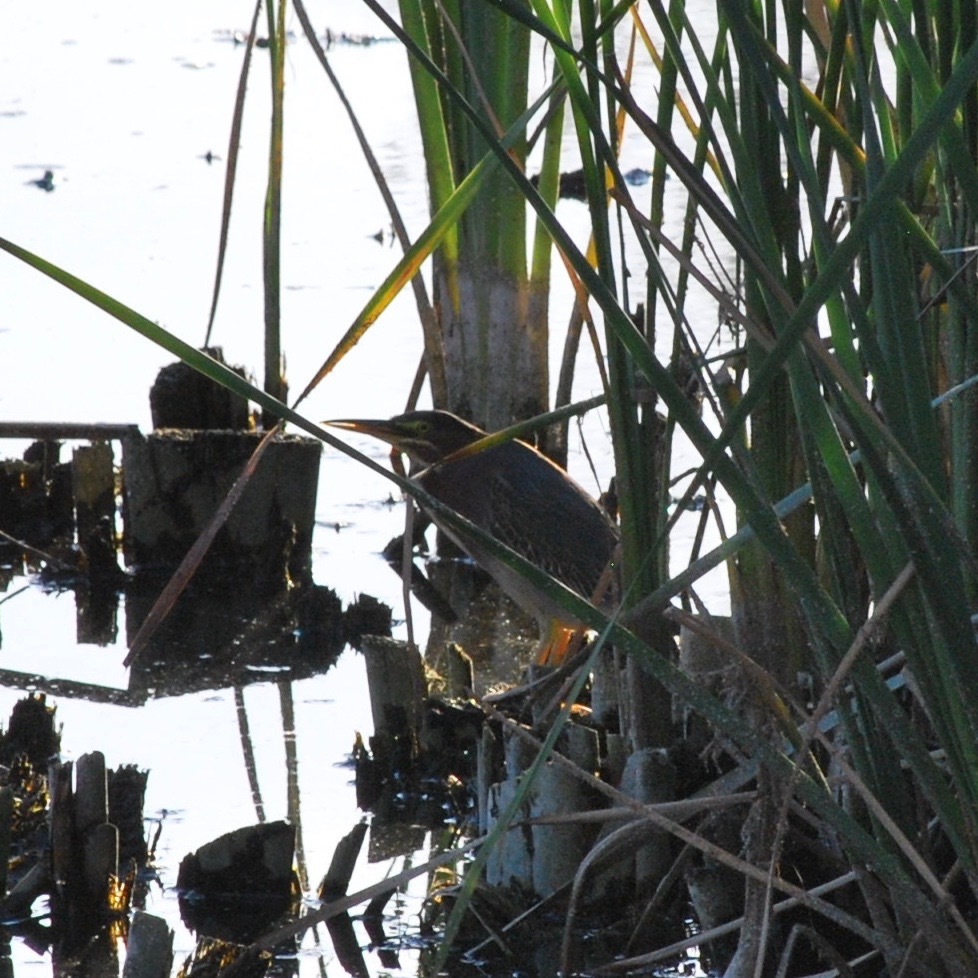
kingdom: Animalia
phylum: Chordata
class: Aves
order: Pelecaniformes
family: Ardeidae
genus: Butorides
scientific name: Butorides virescens
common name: Green heron
